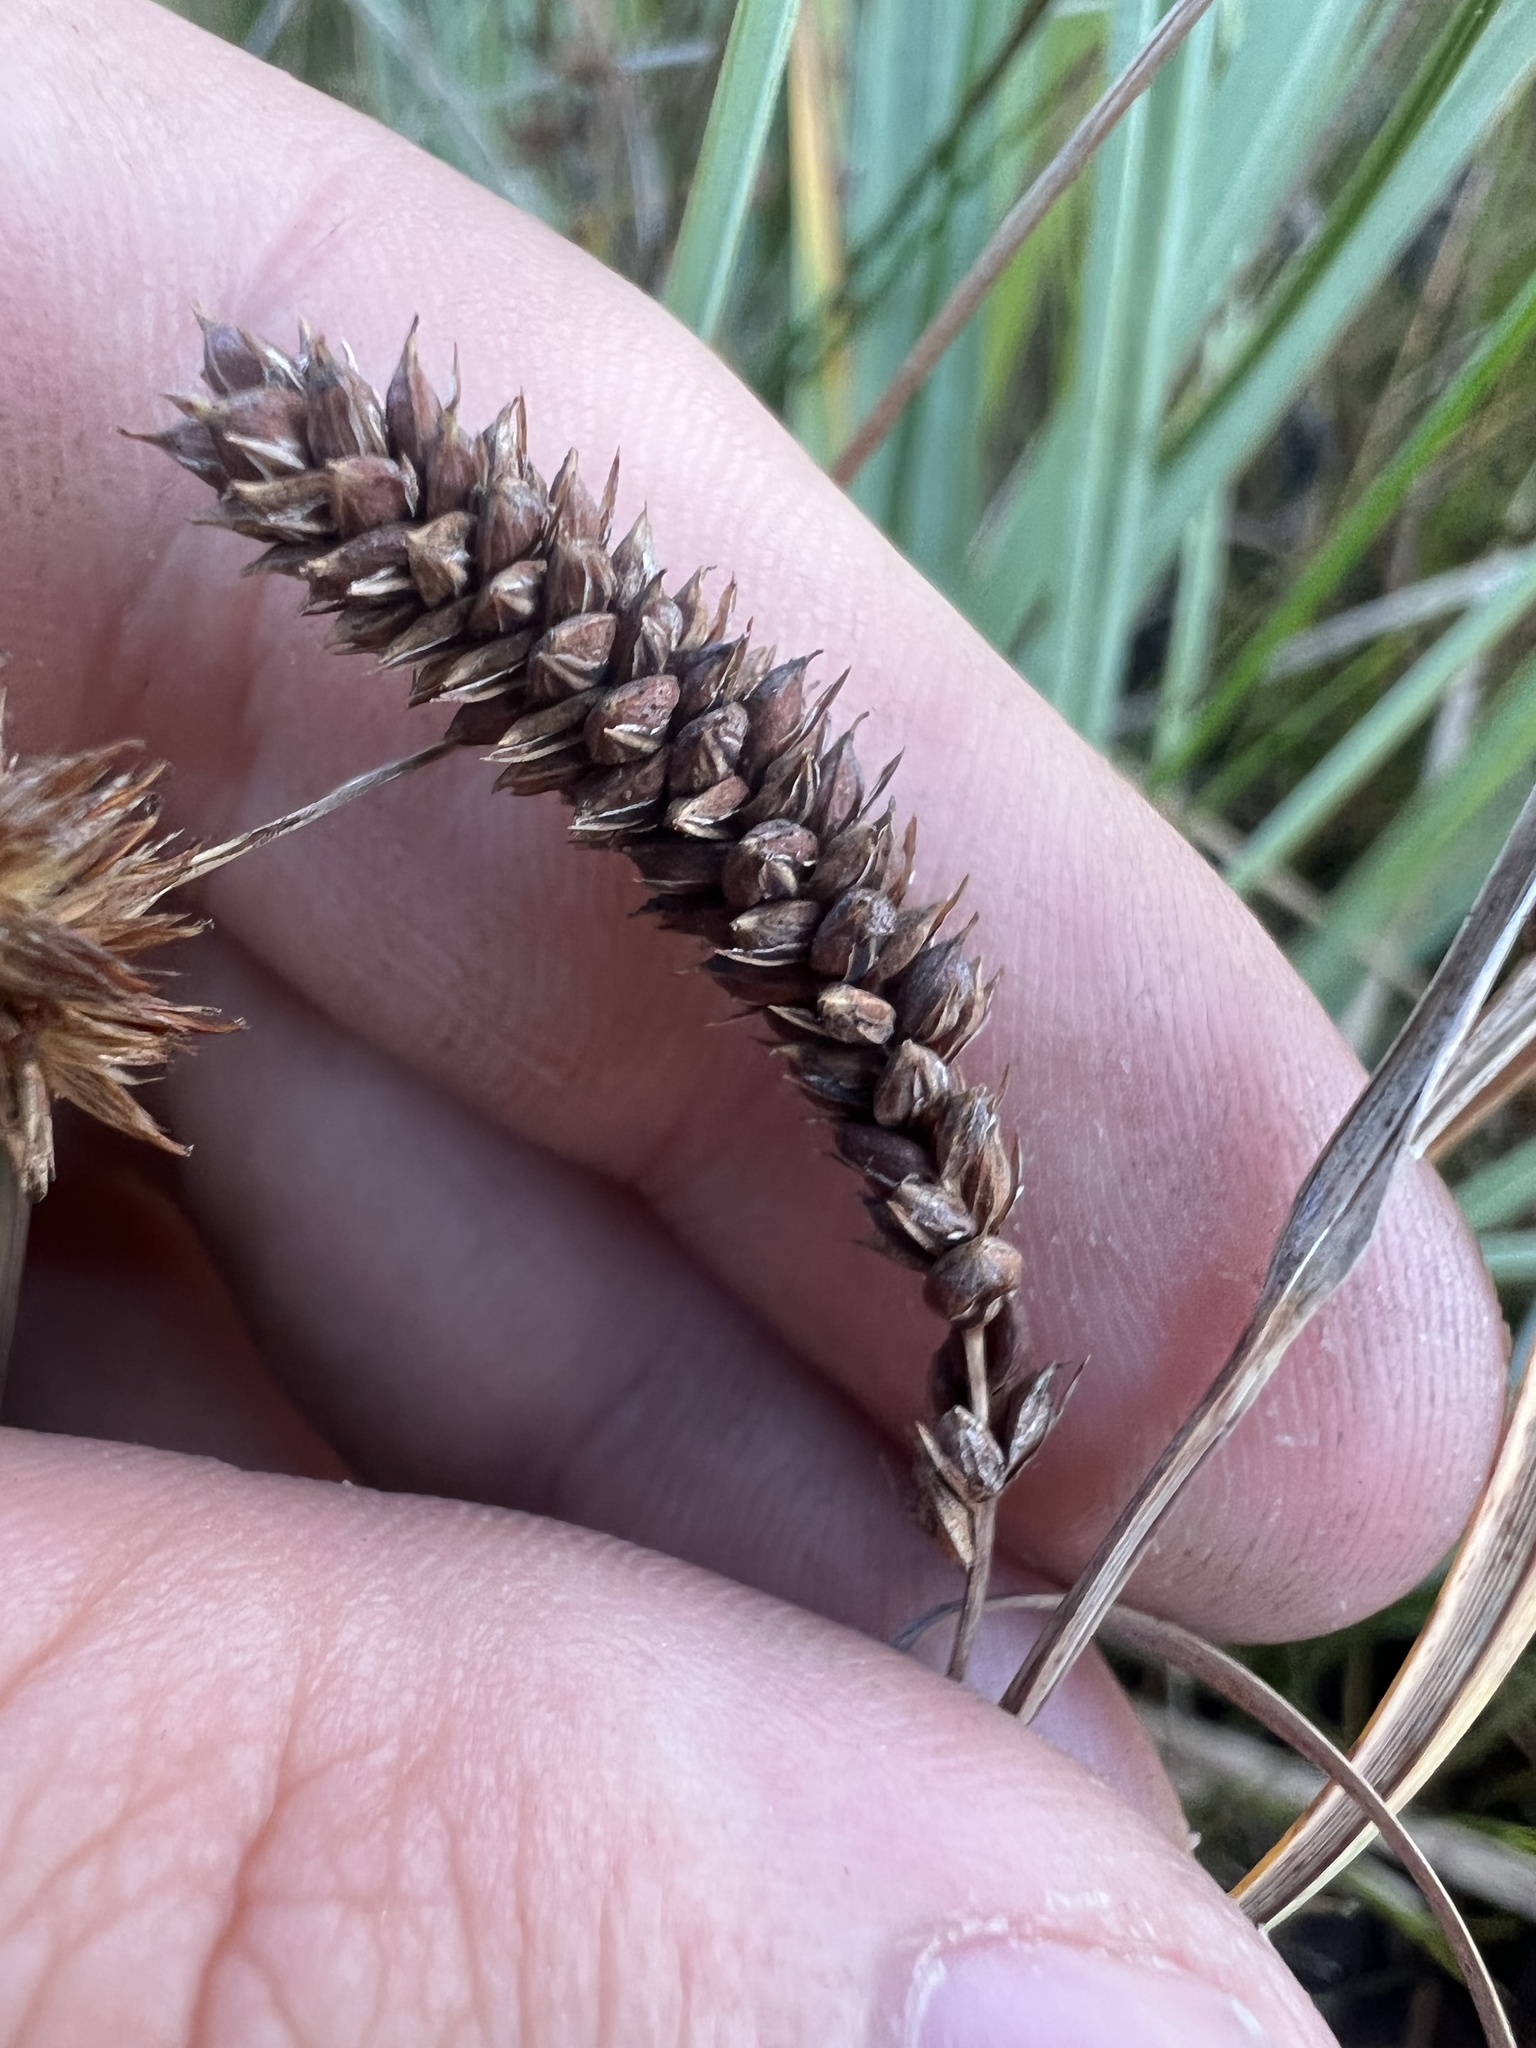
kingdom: Plantae
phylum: Tracheophyta
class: Liliopsida
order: Poales
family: Cyperaceae
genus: Carex
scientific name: Carex aquatilis
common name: Water sedge
